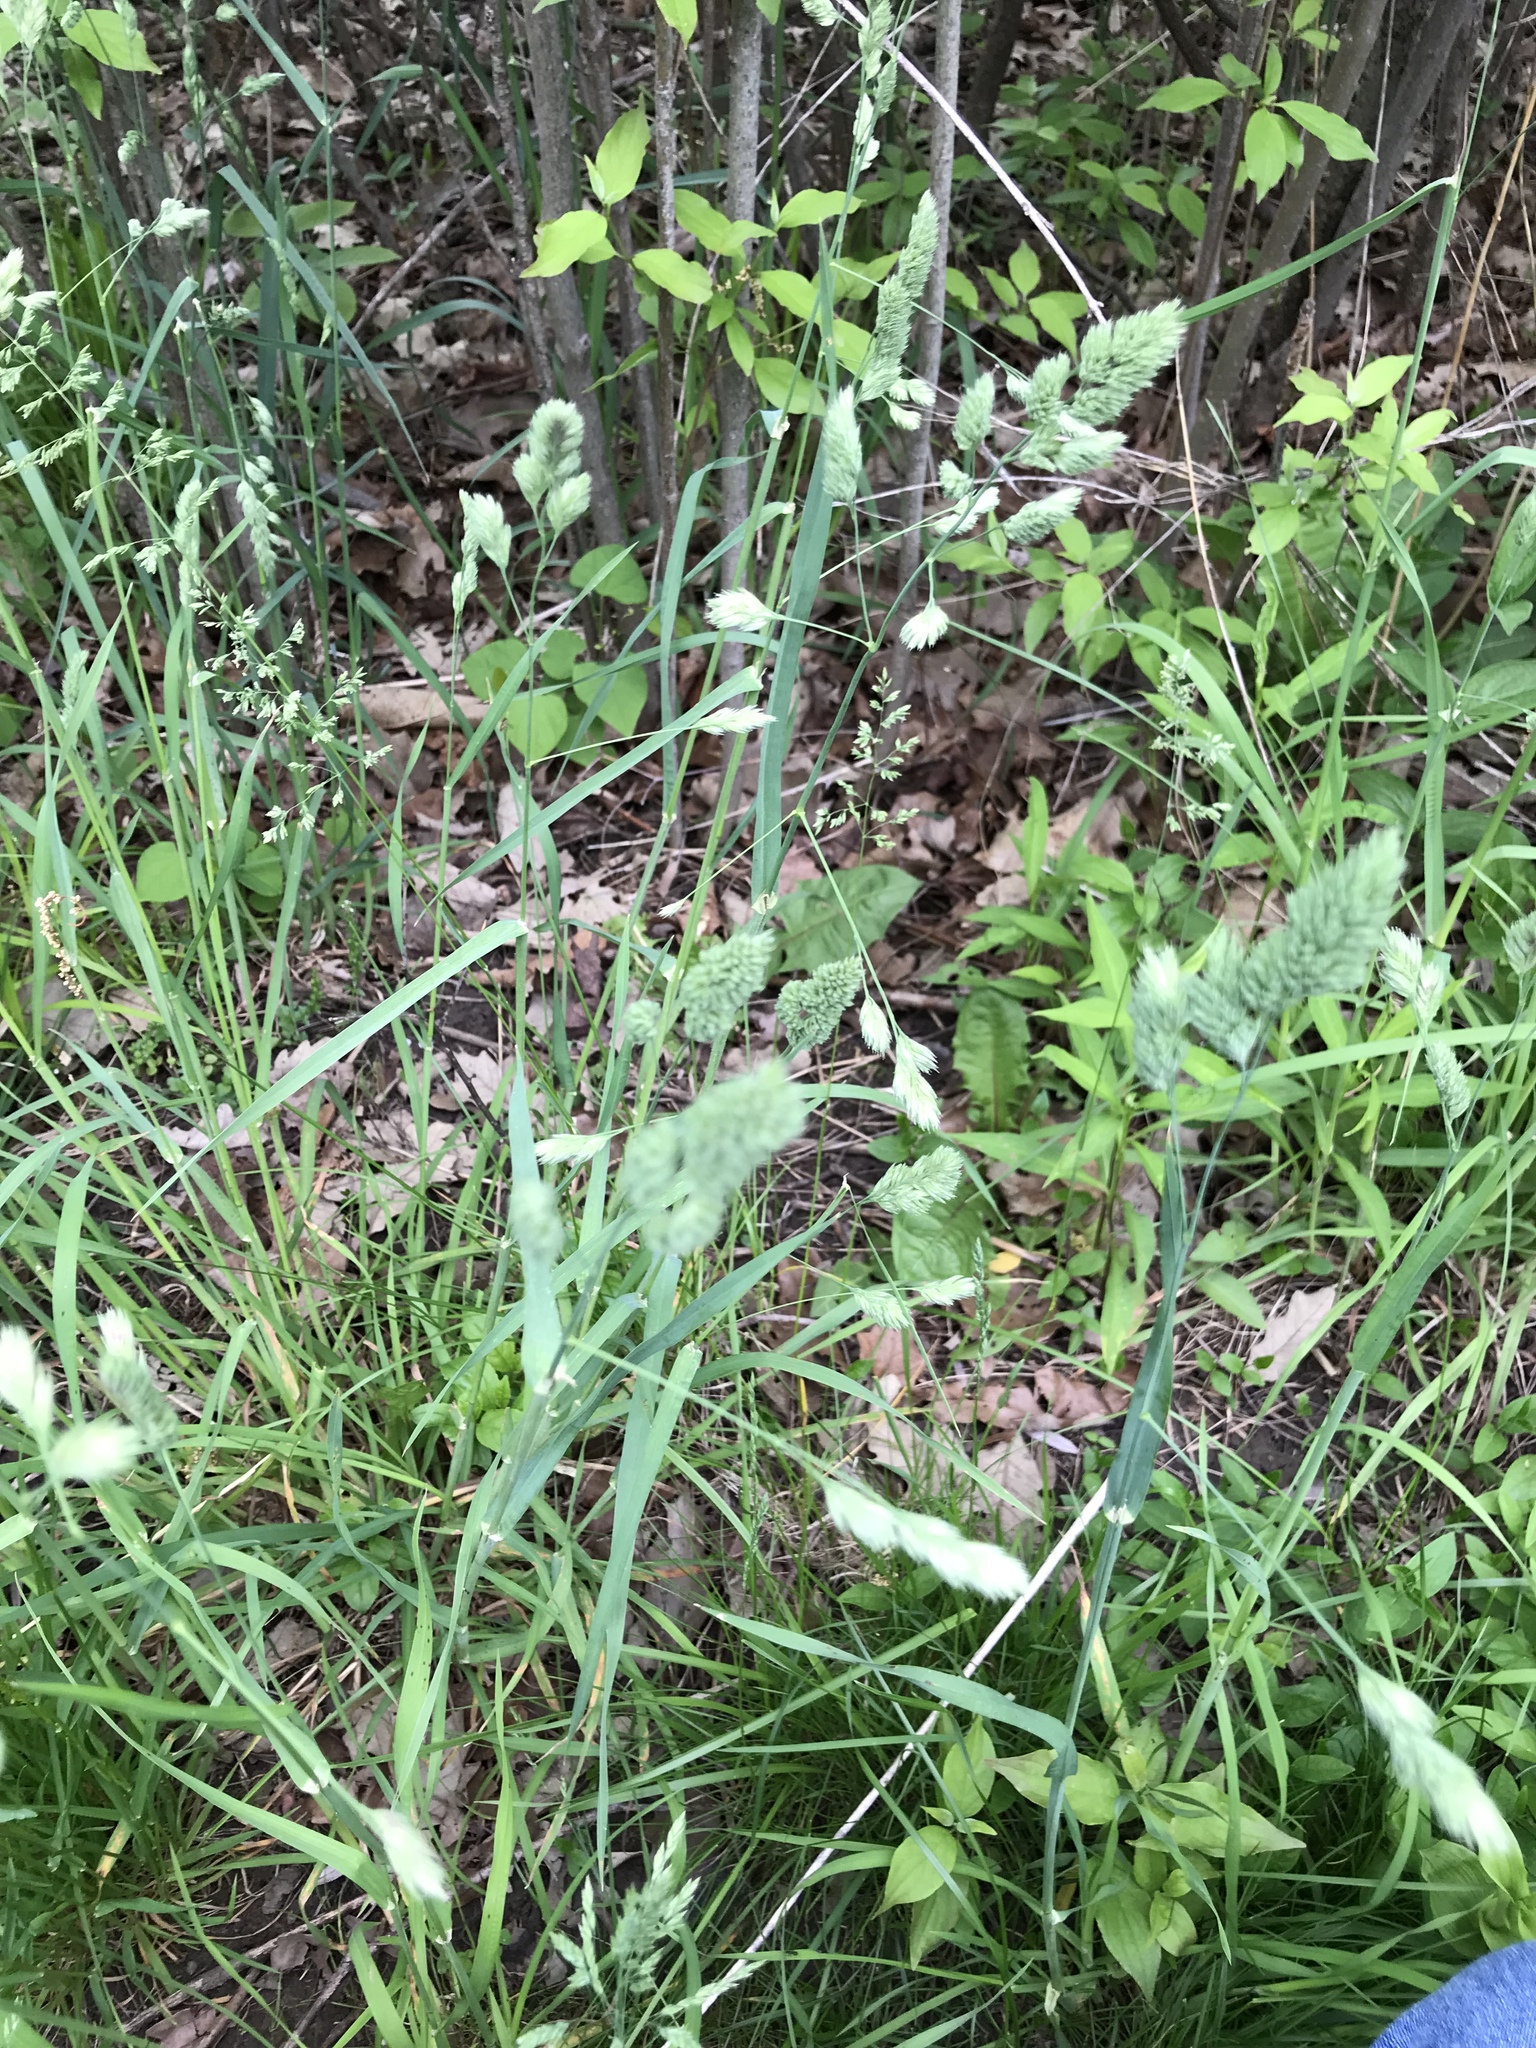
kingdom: Plantae
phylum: Tracheophyta
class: Liliopsida
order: Poales
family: Poaceae
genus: Dactylis
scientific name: Dactylis glomerata
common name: Orchardgrass
